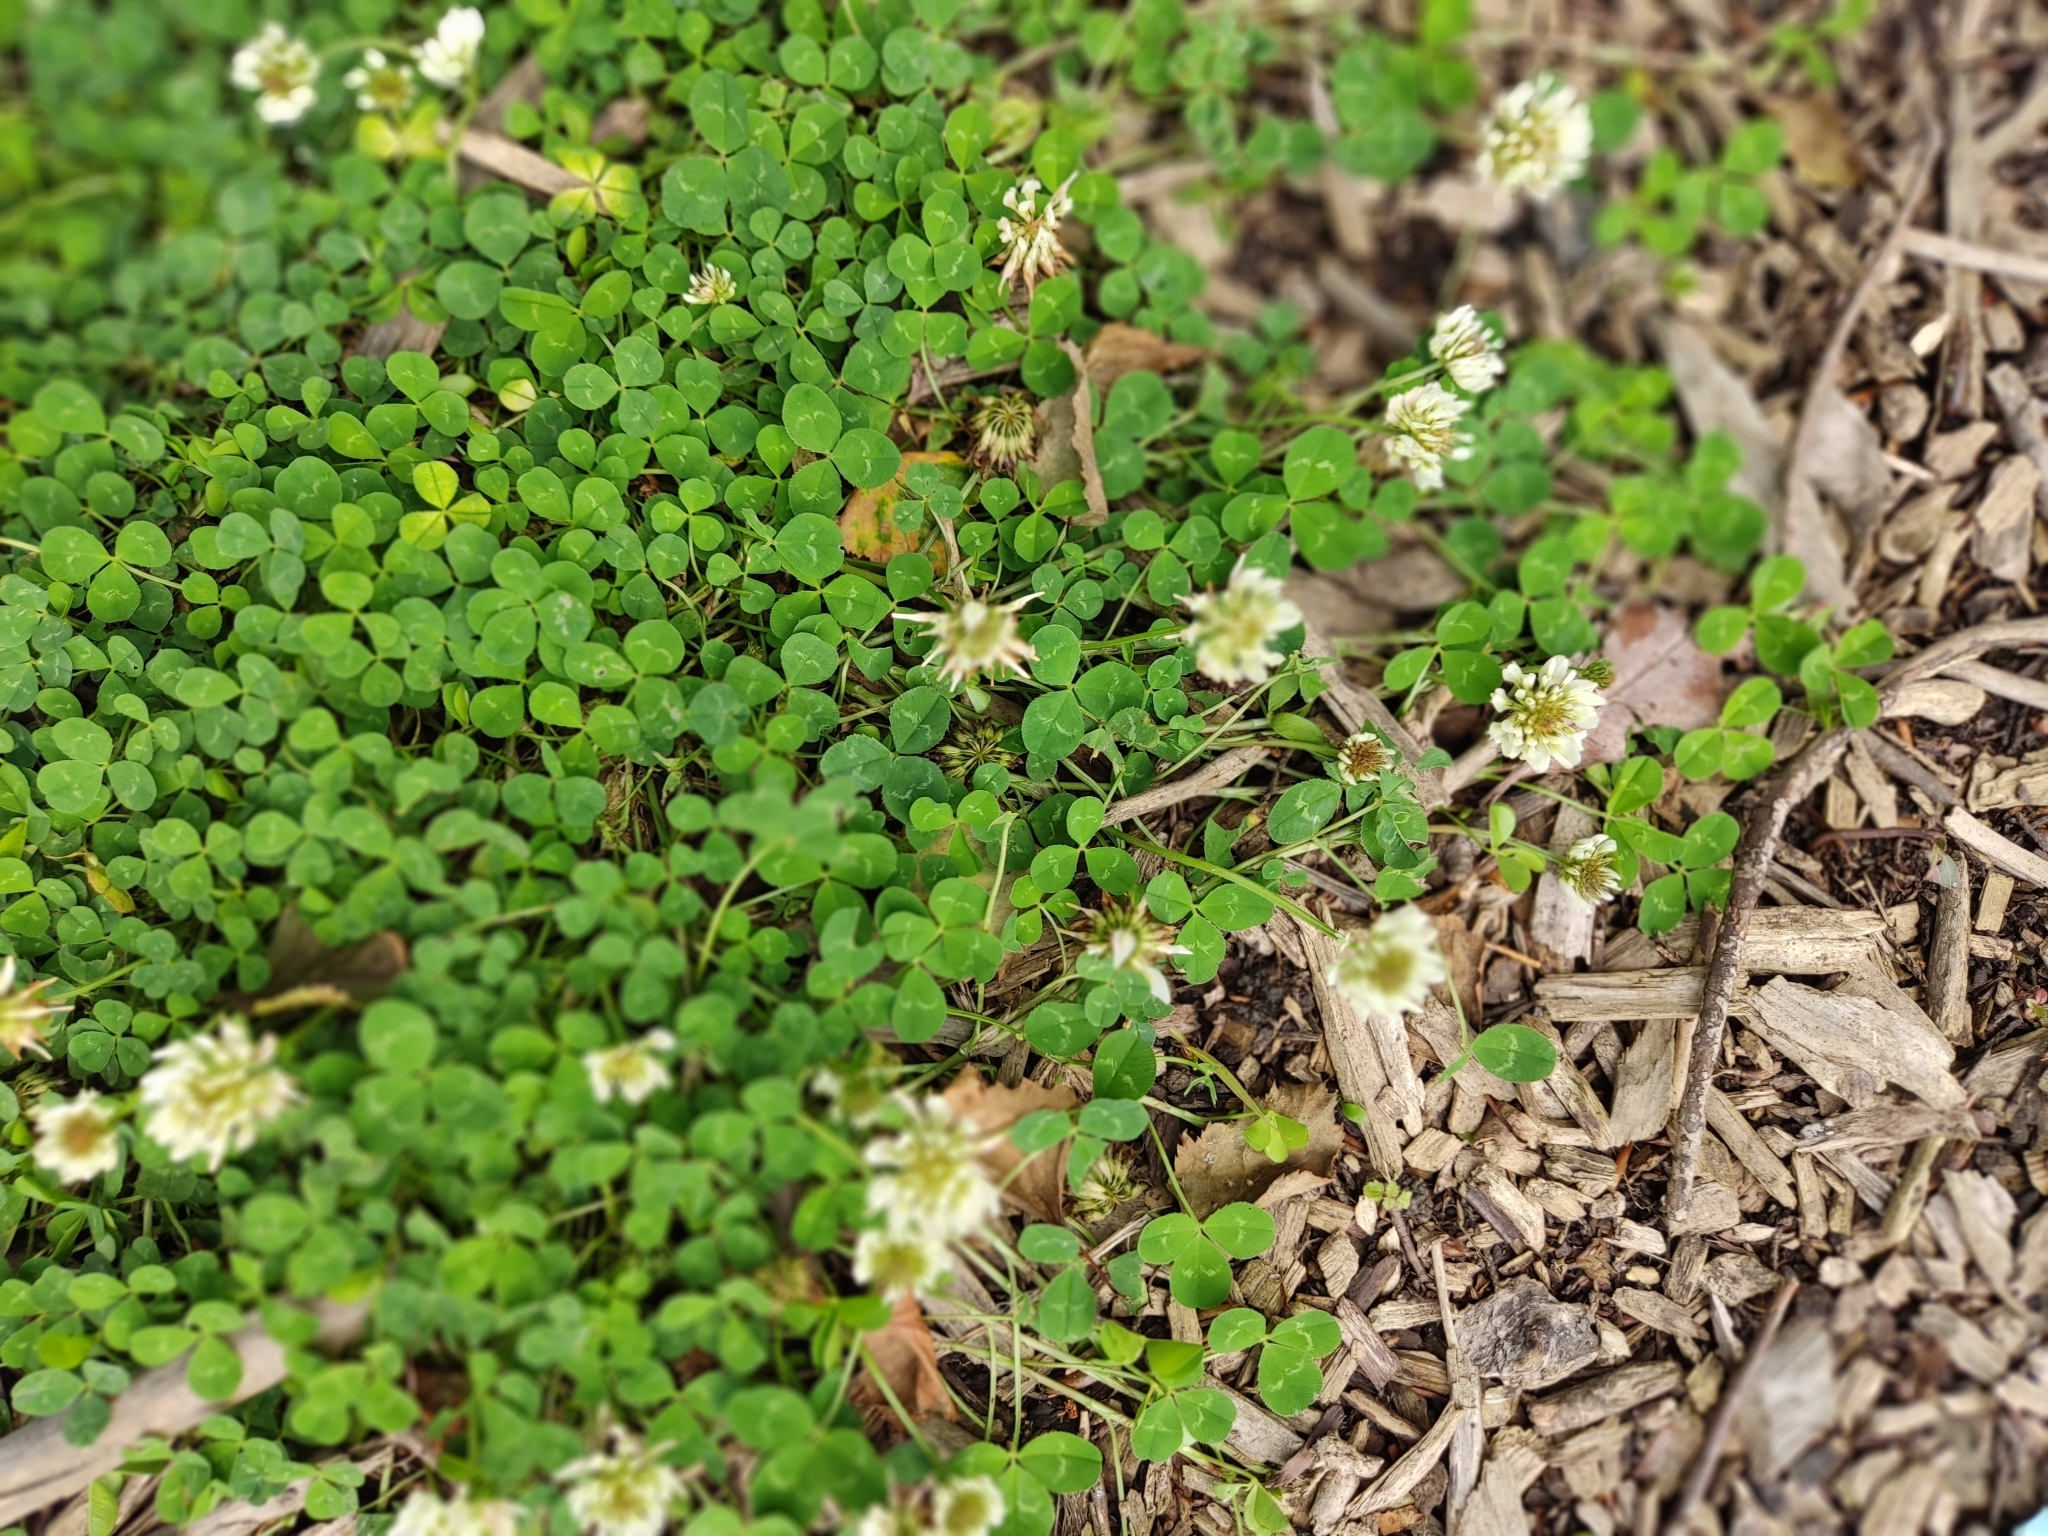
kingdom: Plantae
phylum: Tracheophyta
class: Magnoliopsida
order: Fabales
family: Fabaceae
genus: Trifolium
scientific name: Trifolium repens
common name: White clover
